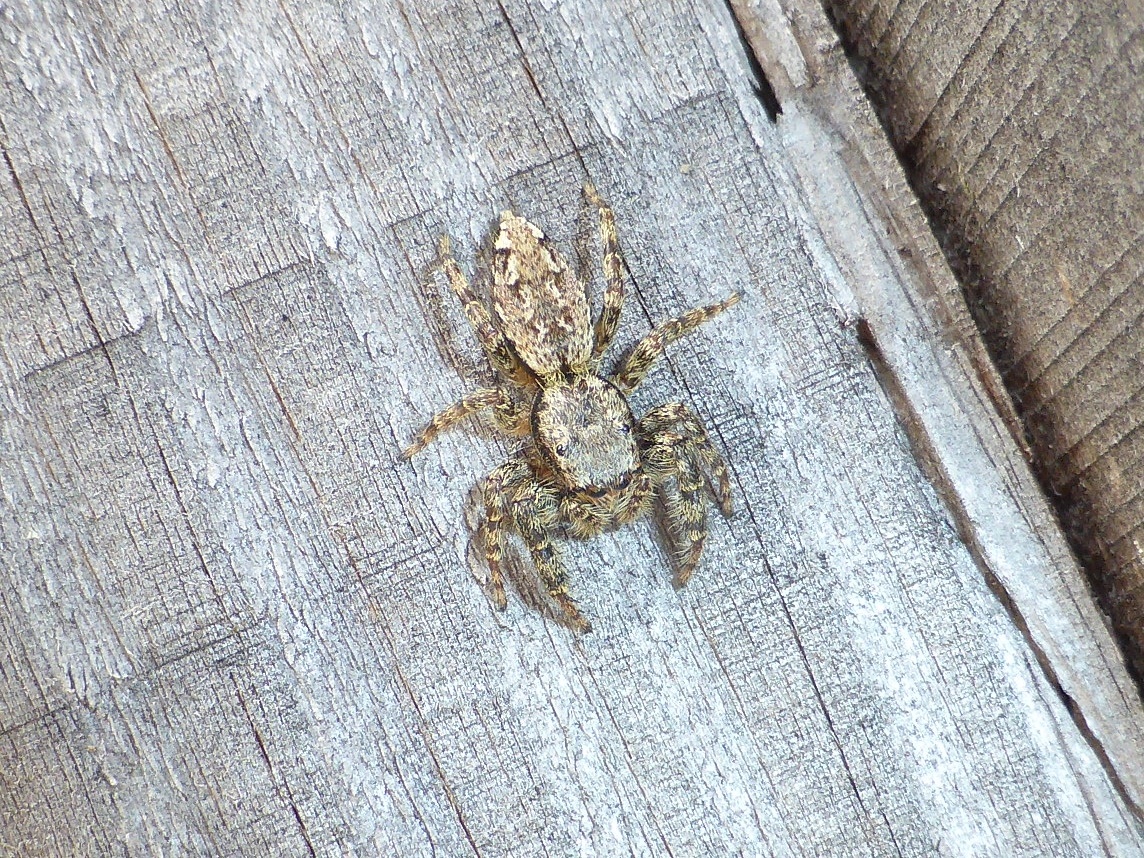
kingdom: Animalia
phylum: Arthropoda
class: Arachnida
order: Araneae
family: Salticidae
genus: Marpissa
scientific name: Marpissa muscosa
